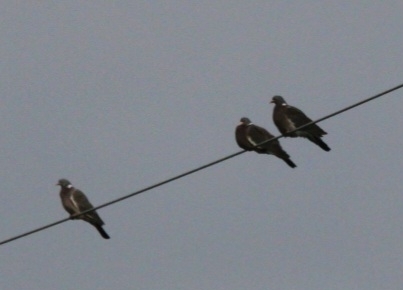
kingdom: Animalia
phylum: Chordata
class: Aves
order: Columbiformes
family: Columbidae
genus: Columba
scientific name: Columba palumbus
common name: Common wood pigeon
